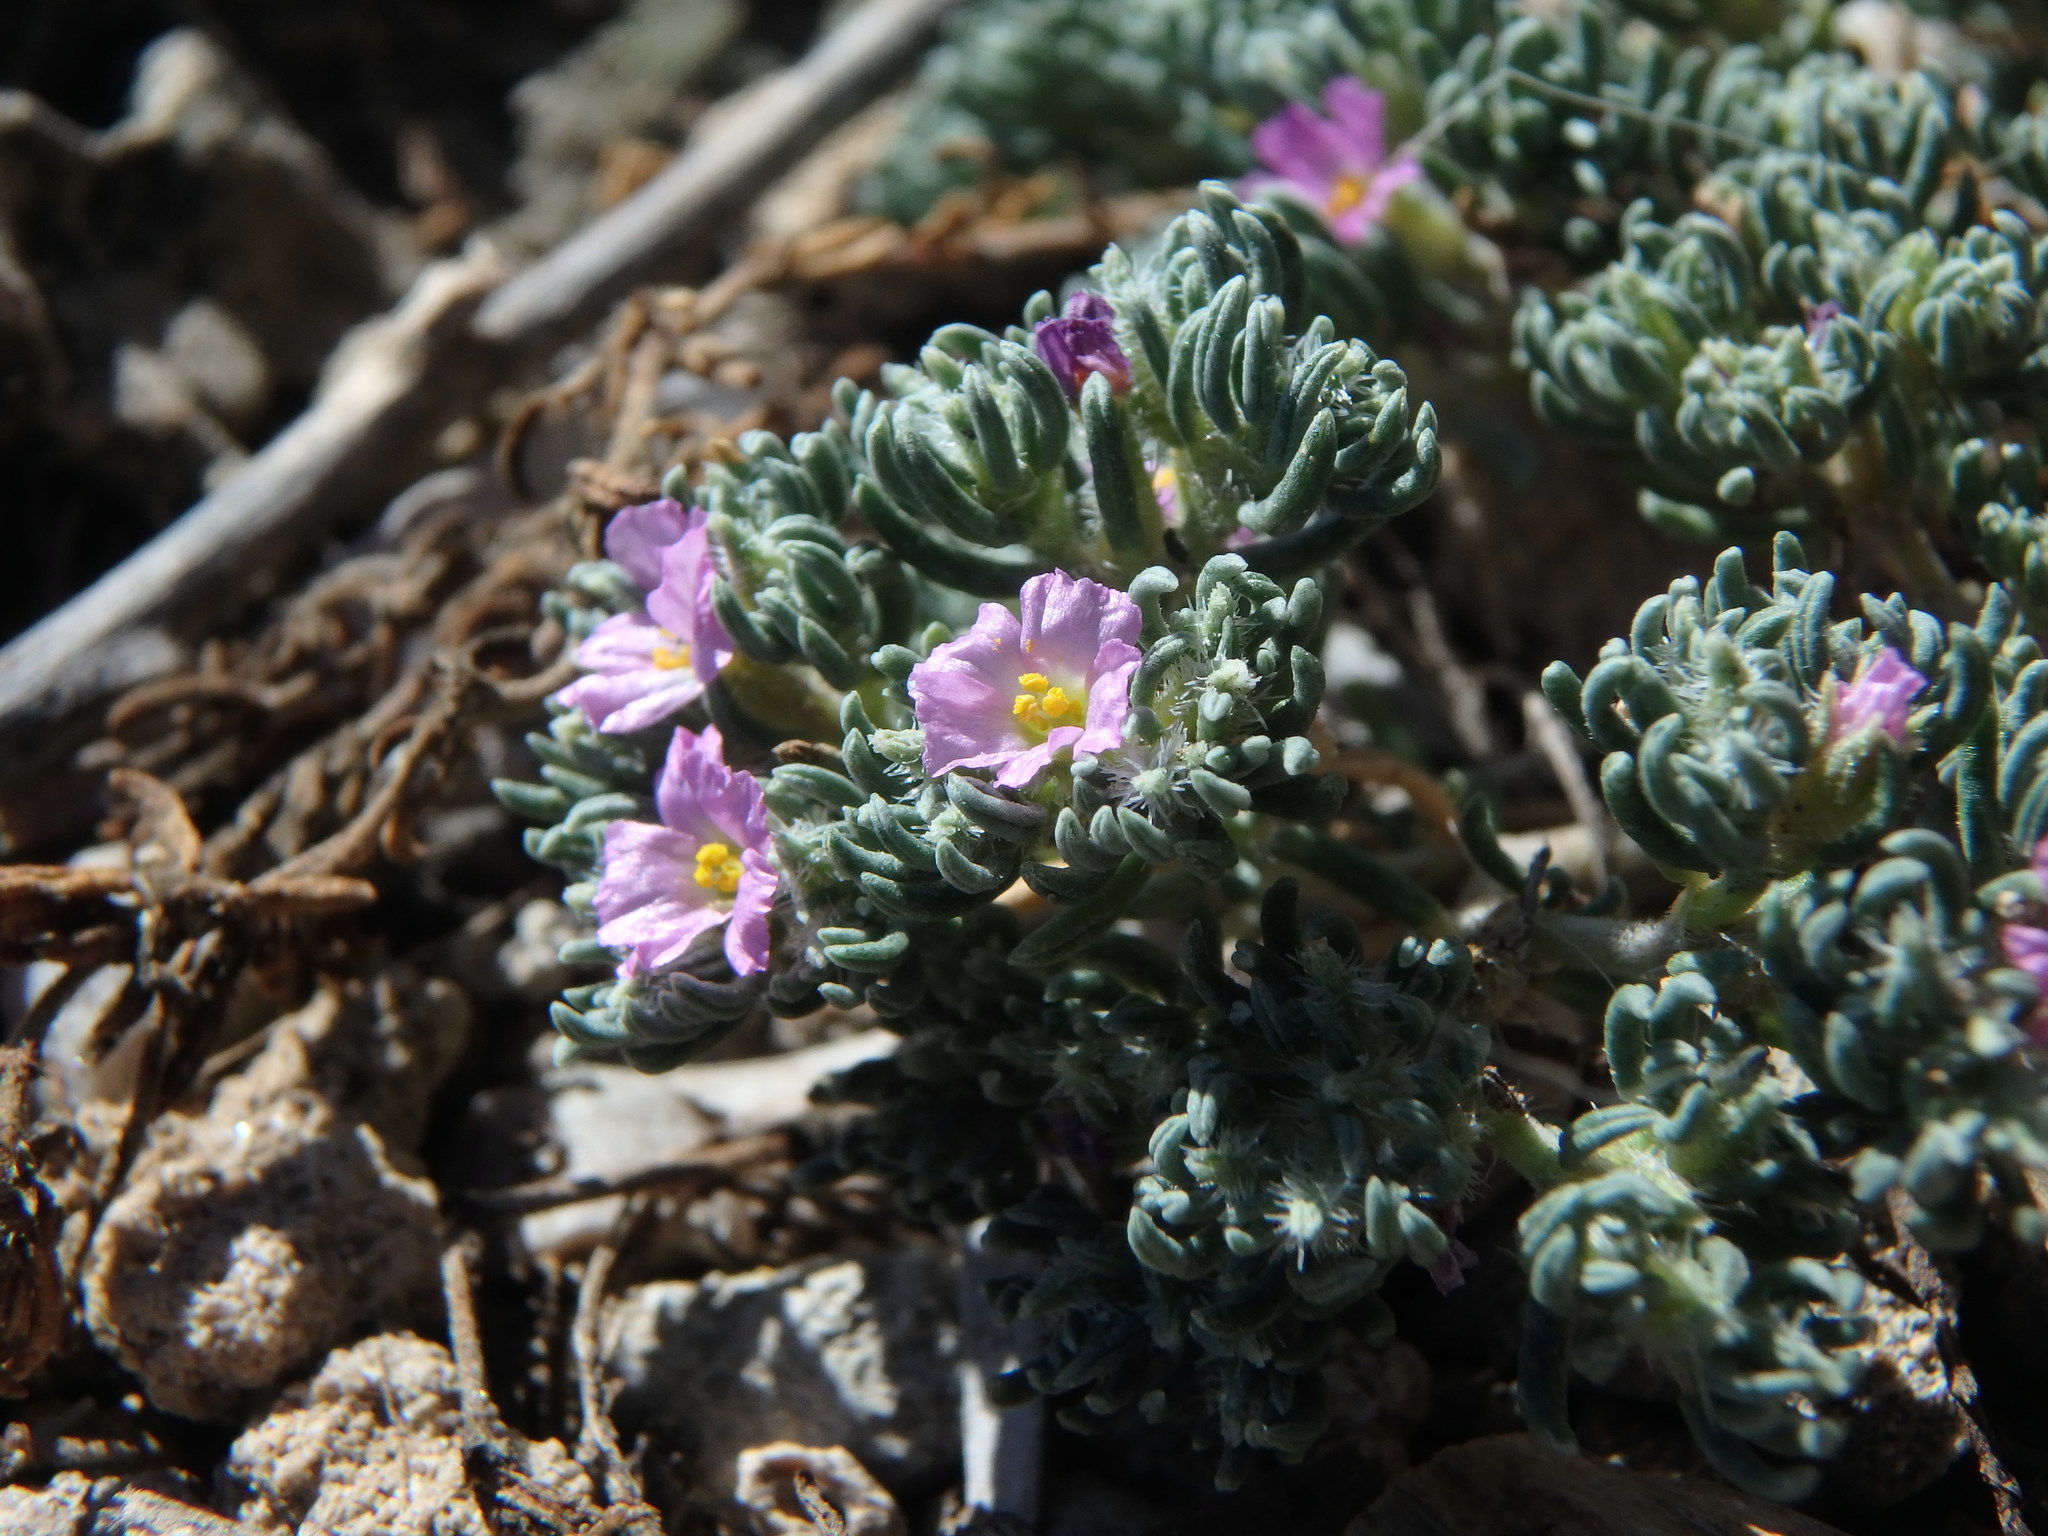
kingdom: Plantae
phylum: Tracheophyta
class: Magnoliopsida
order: Caryophyllales
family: Frankeniaceae
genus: Frankenia
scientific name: Frankenia hirsuta
